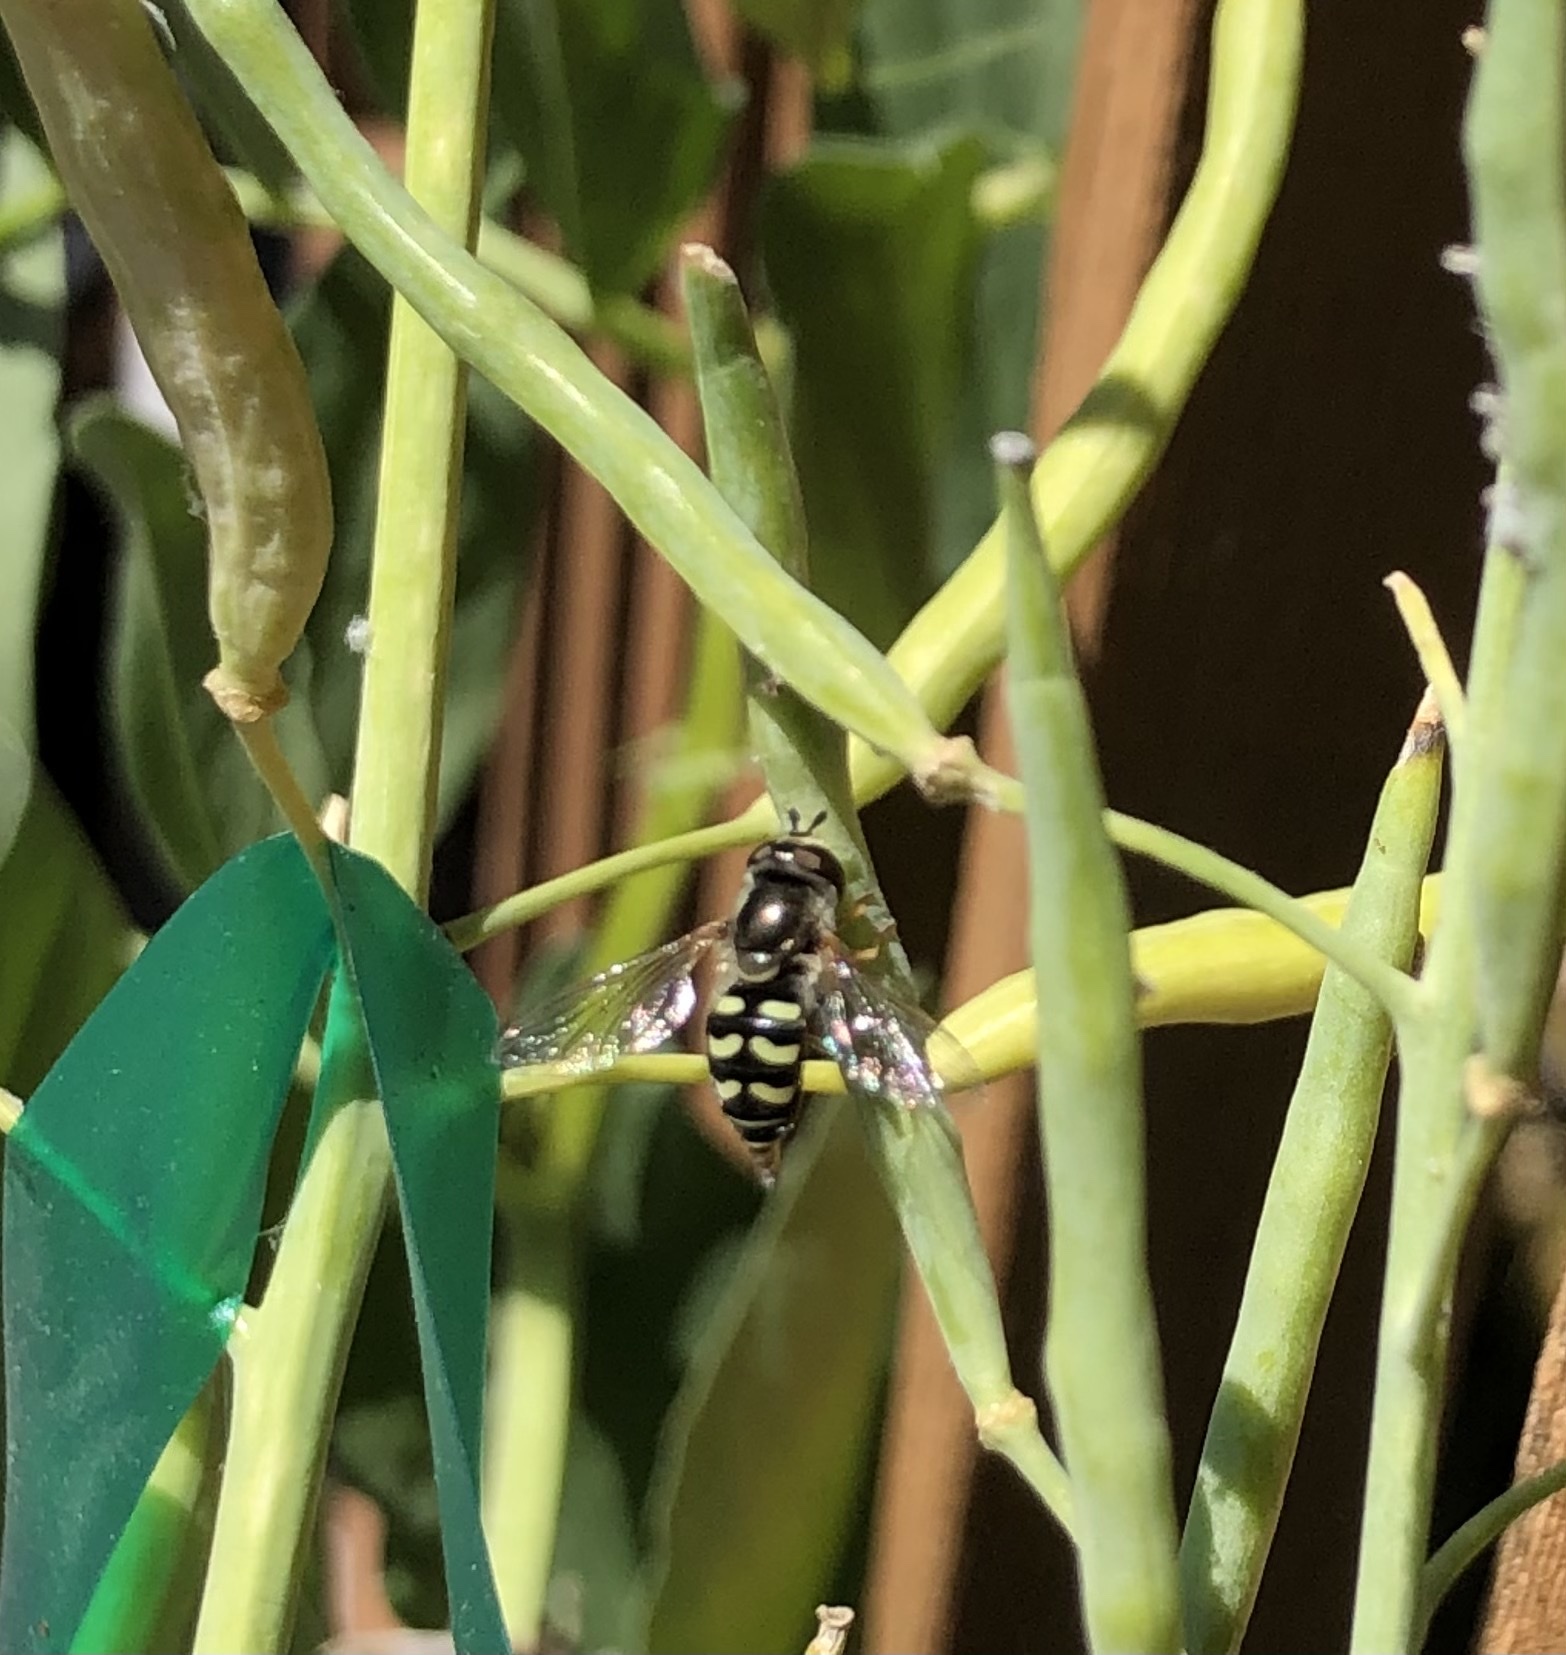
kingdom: Animalia
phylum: Arthropoda
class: Insecta
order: Diptera
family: Syrphidae
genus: Eupeodes
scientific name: Eupeodes volucris
